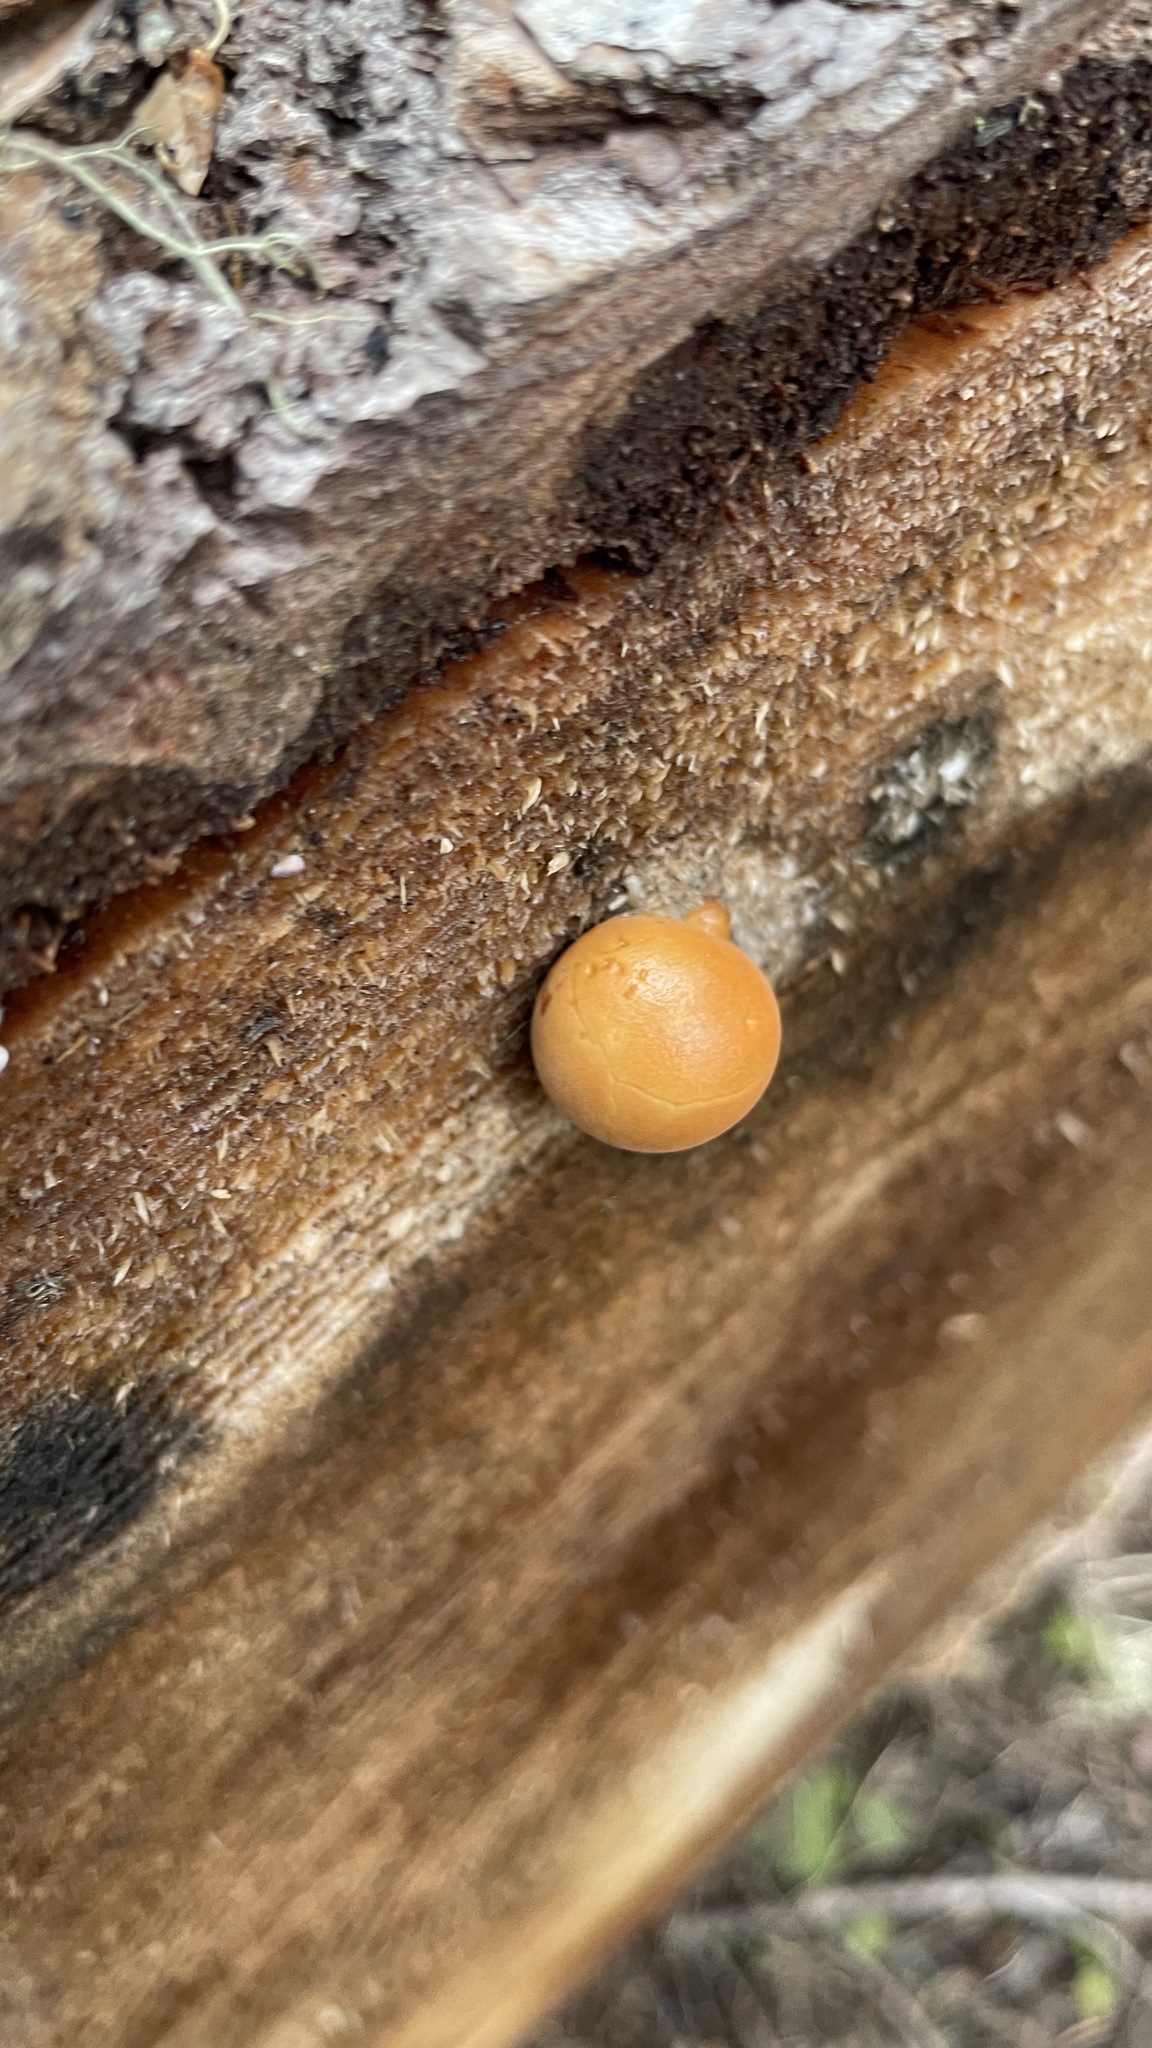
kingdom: Fungi
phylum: Basidiomycota
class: Agaricomycetes
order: Polyporales
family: Polyporaceae
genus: Cryptoporus
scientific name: Cryptoporus volvatus
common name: Veiled polypore
